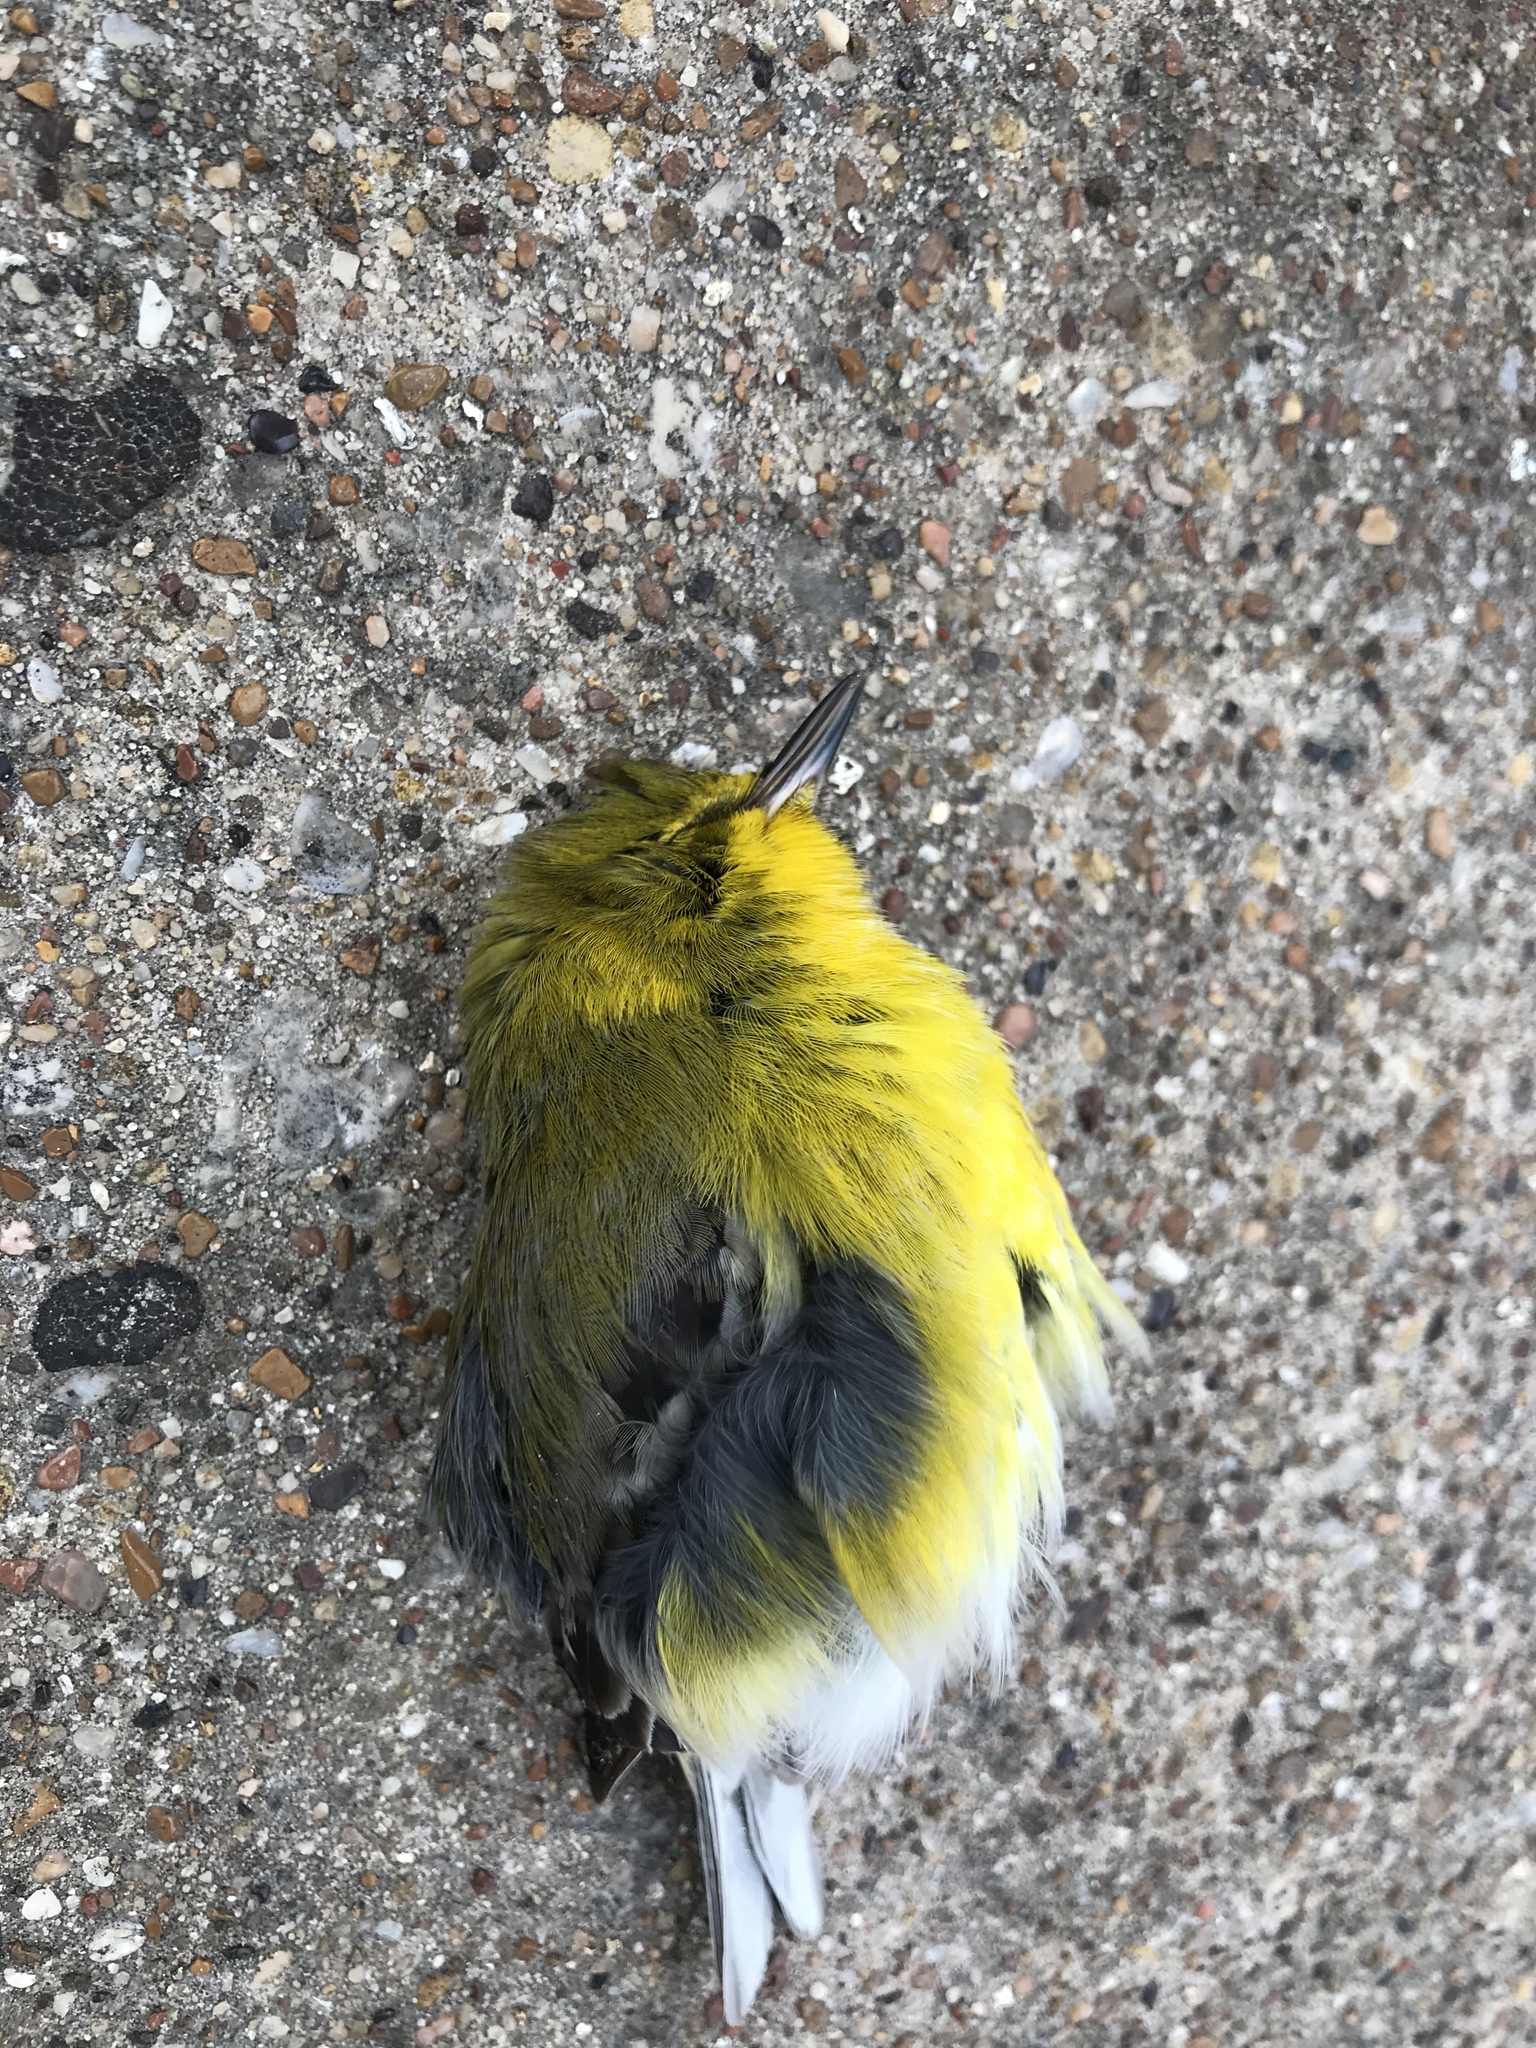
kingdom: Animalia
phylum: Chordata
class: Aves
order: Passeriformes
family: Parulidae
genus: Setophaga
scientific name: Setophaga pinus
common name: Pine warbler
